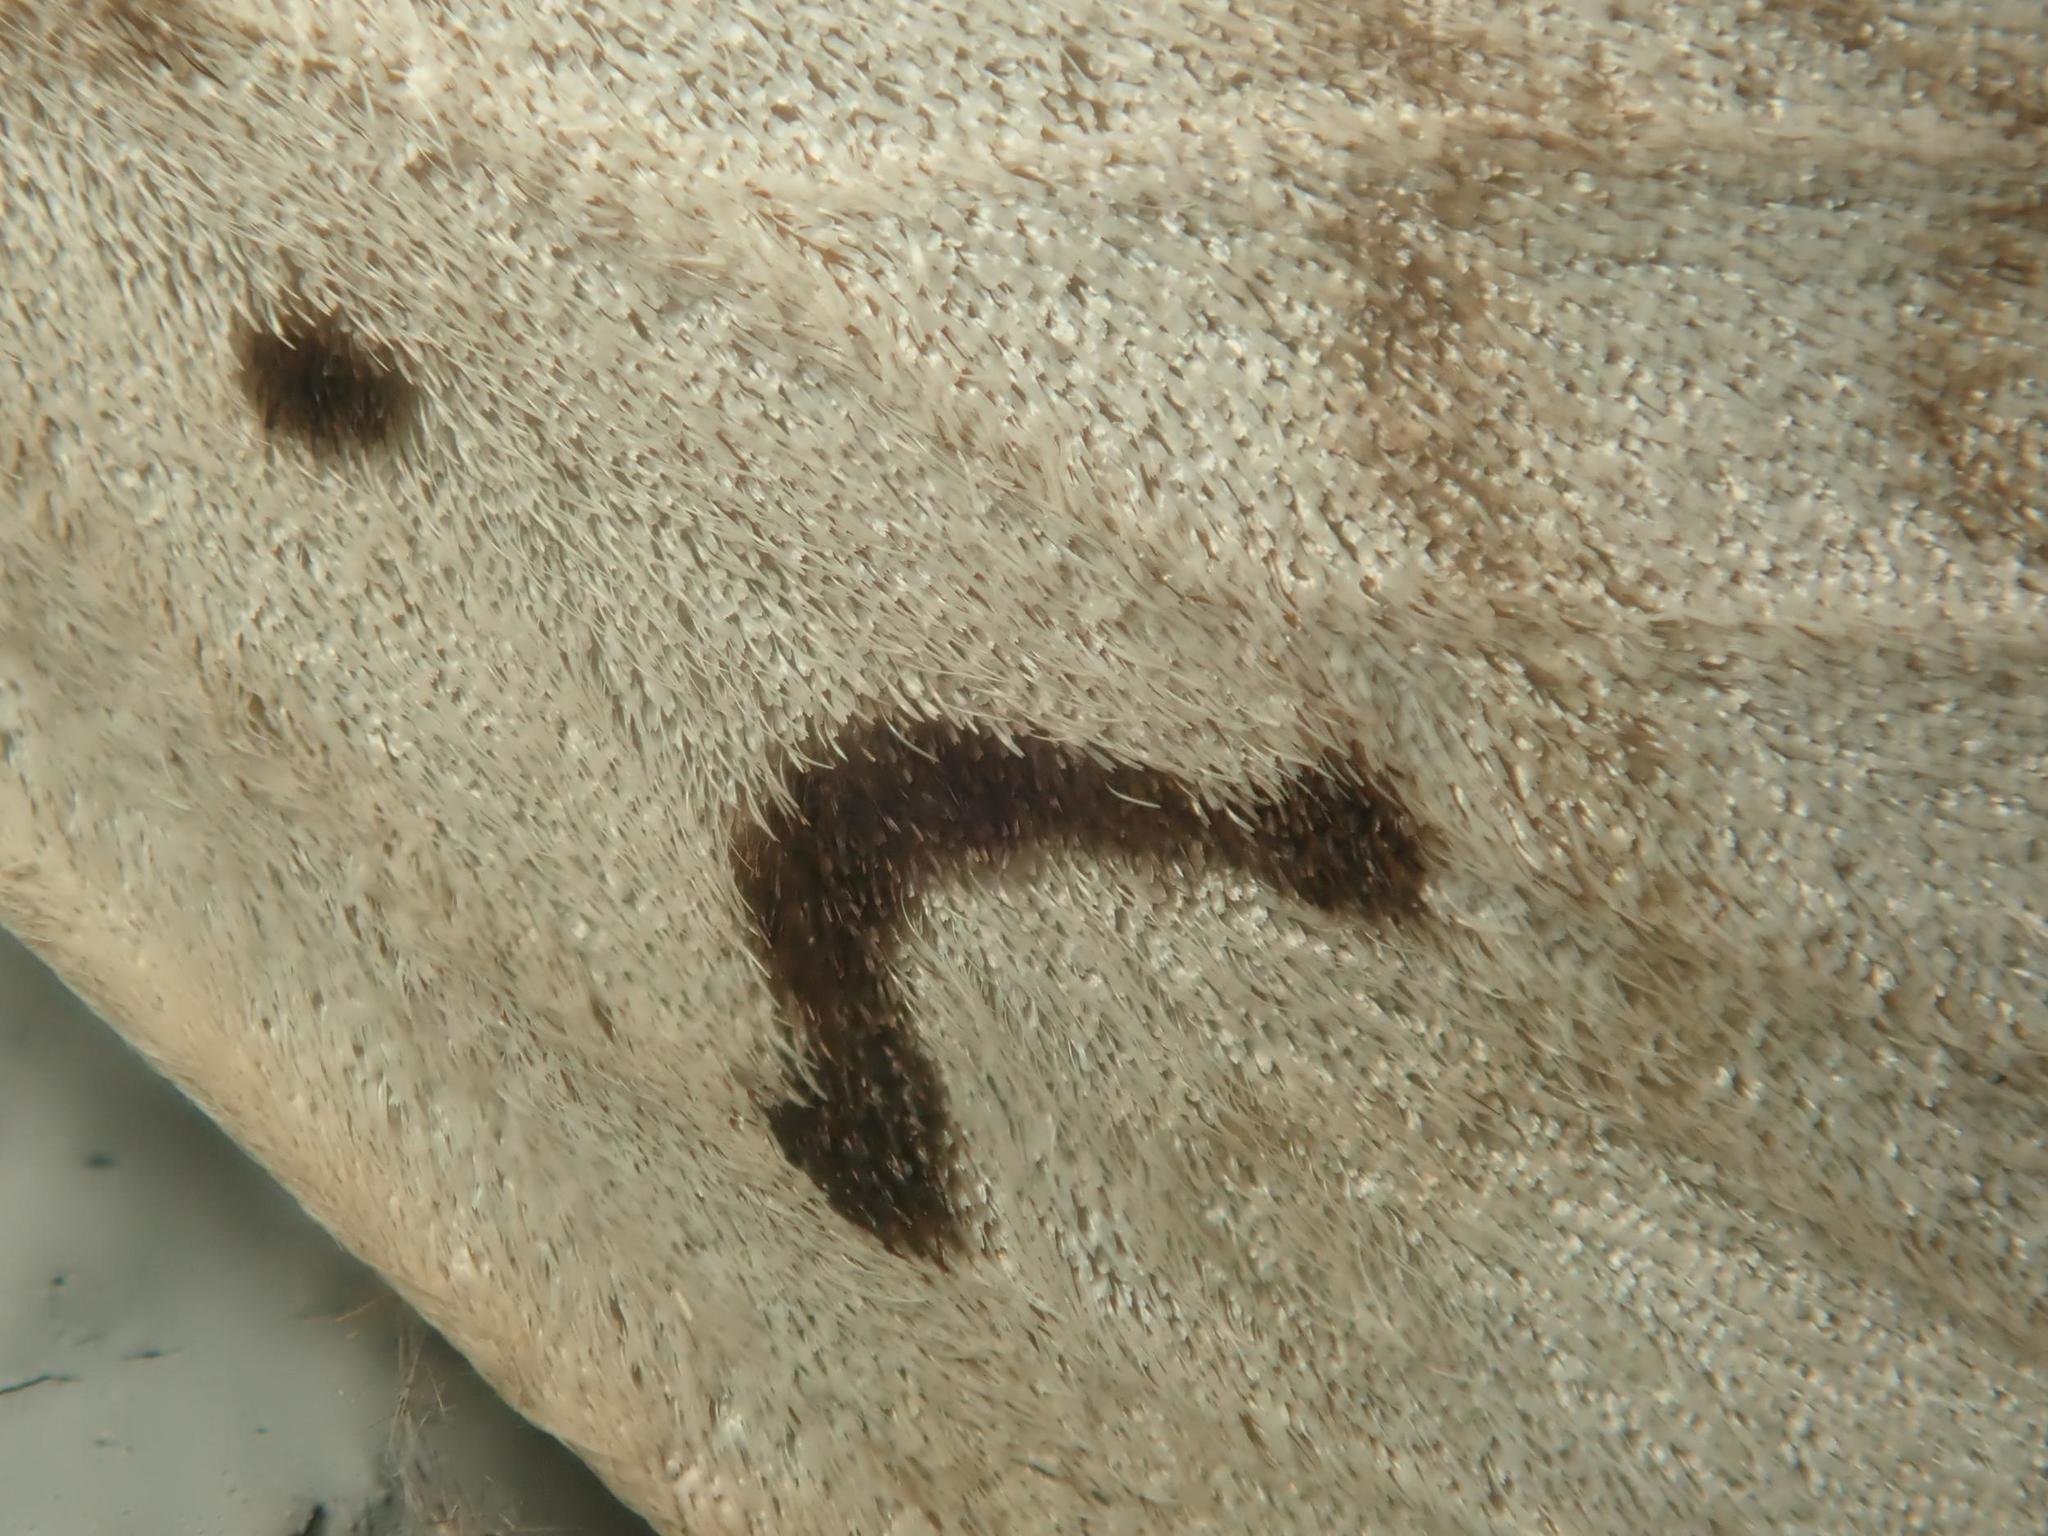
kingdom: Animalia
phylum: Arthropoda
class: Insecta
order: Lepidoptera
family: Erebidae
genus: Lymantria
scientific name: Lymantria dispar
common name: Gypsy moth
